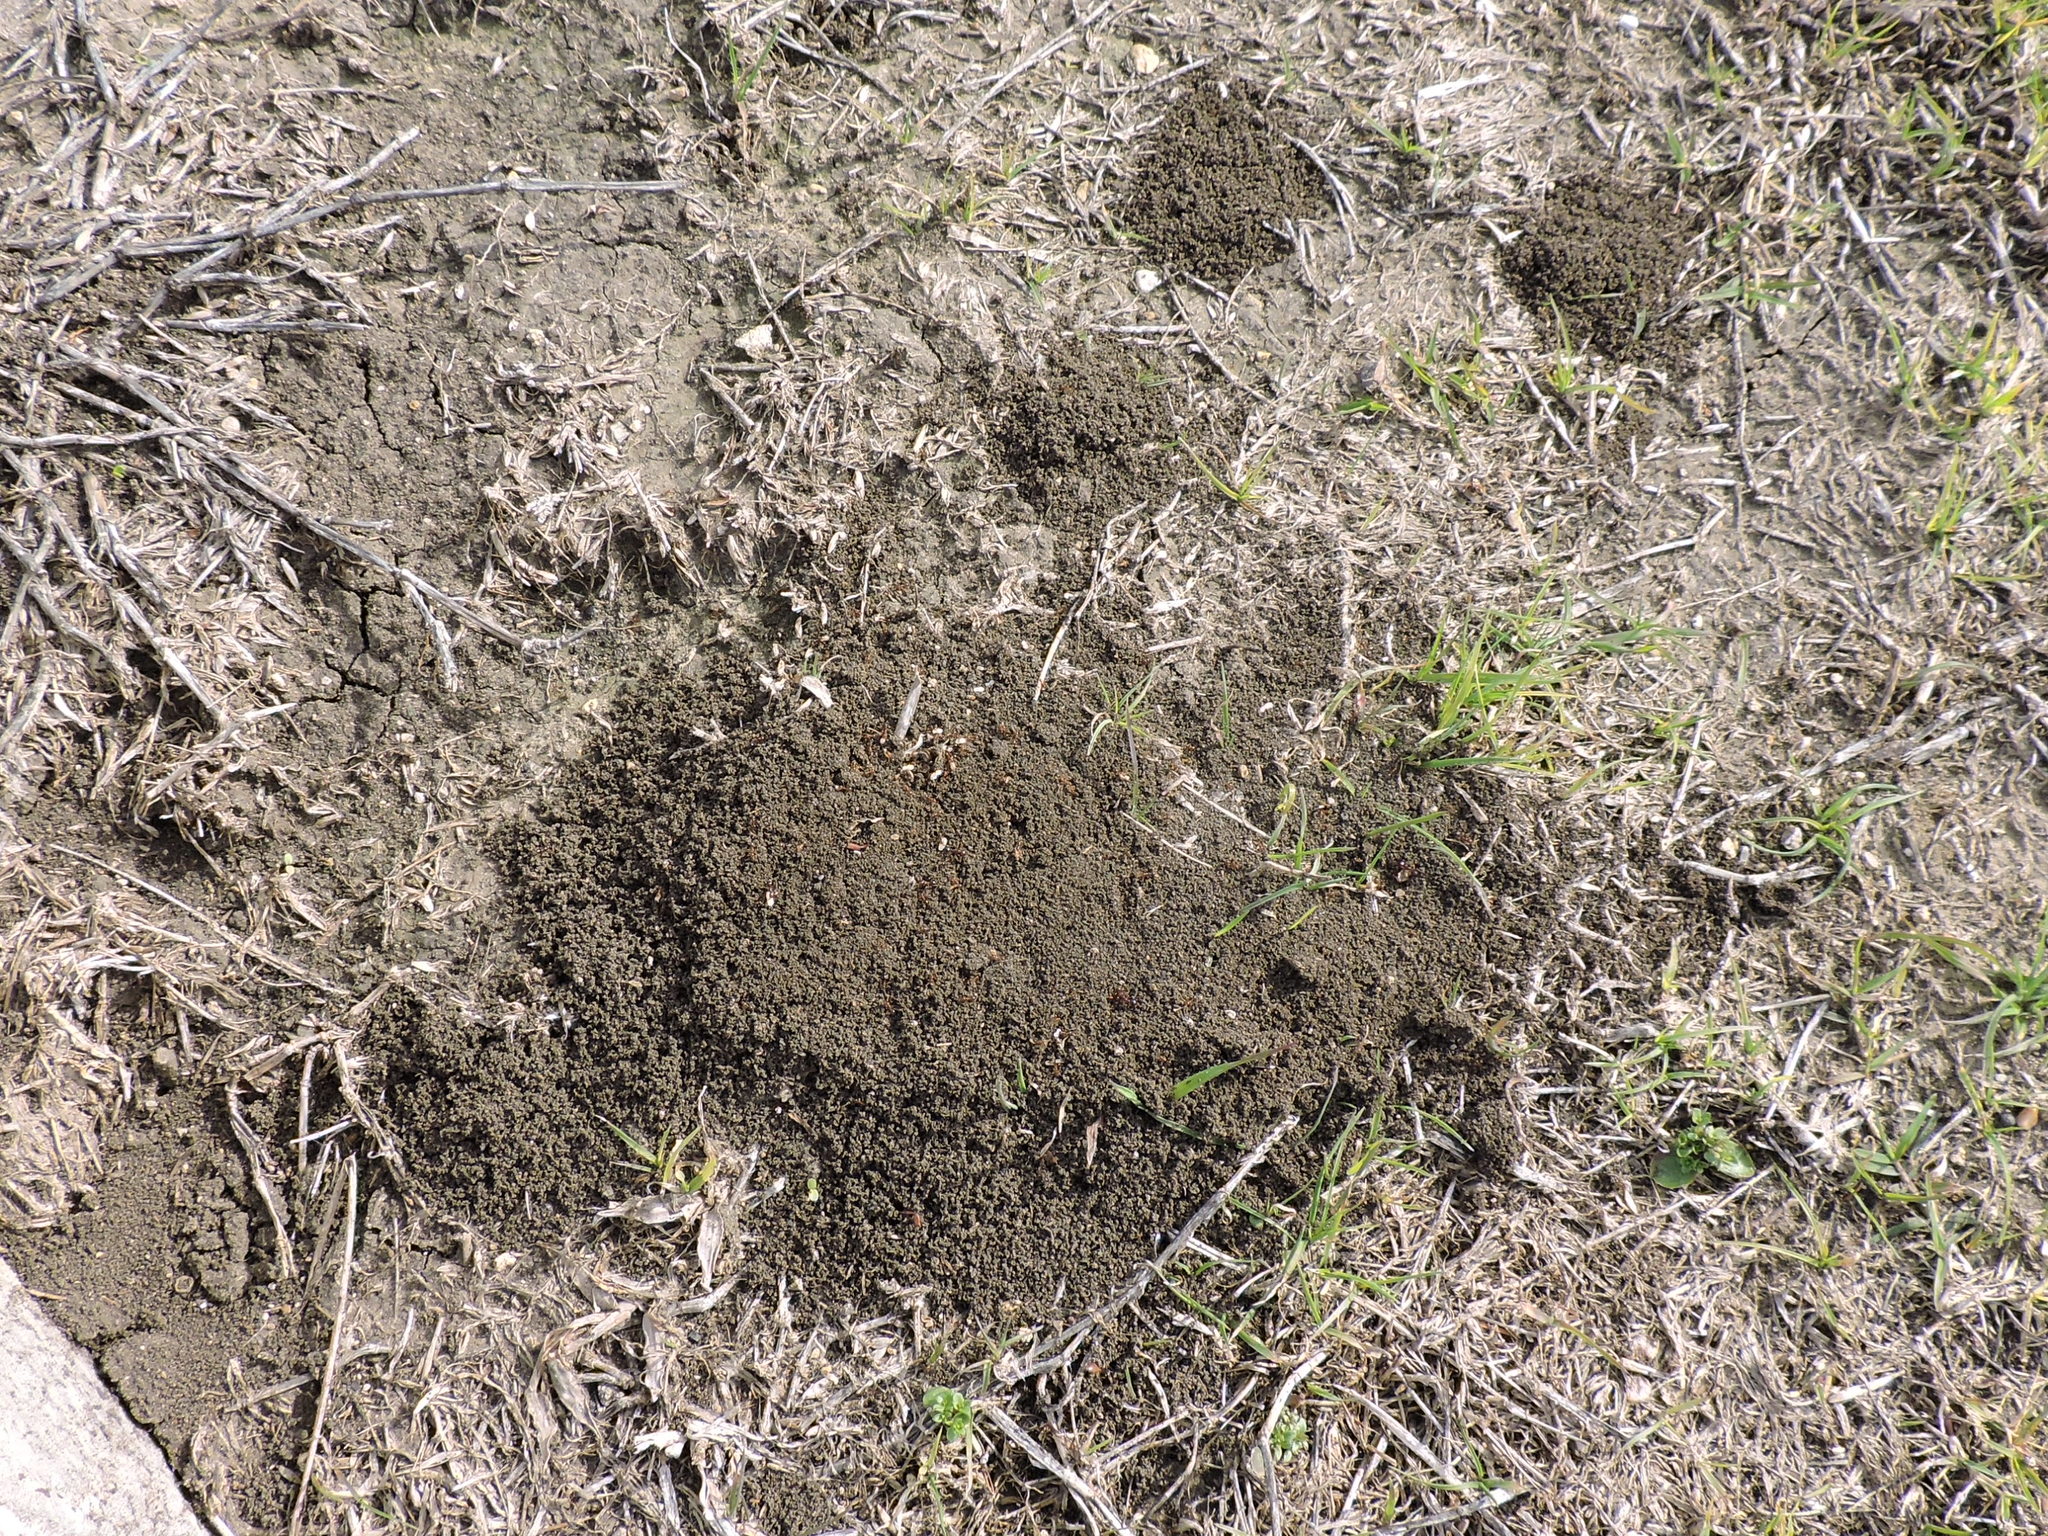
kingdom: Animalia
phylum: Arthropoda
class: Insecta
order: Hymenoptera
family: Formicidae
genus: Solenopsis
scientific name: Solenopsis invicta
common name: Red imported fire ant
